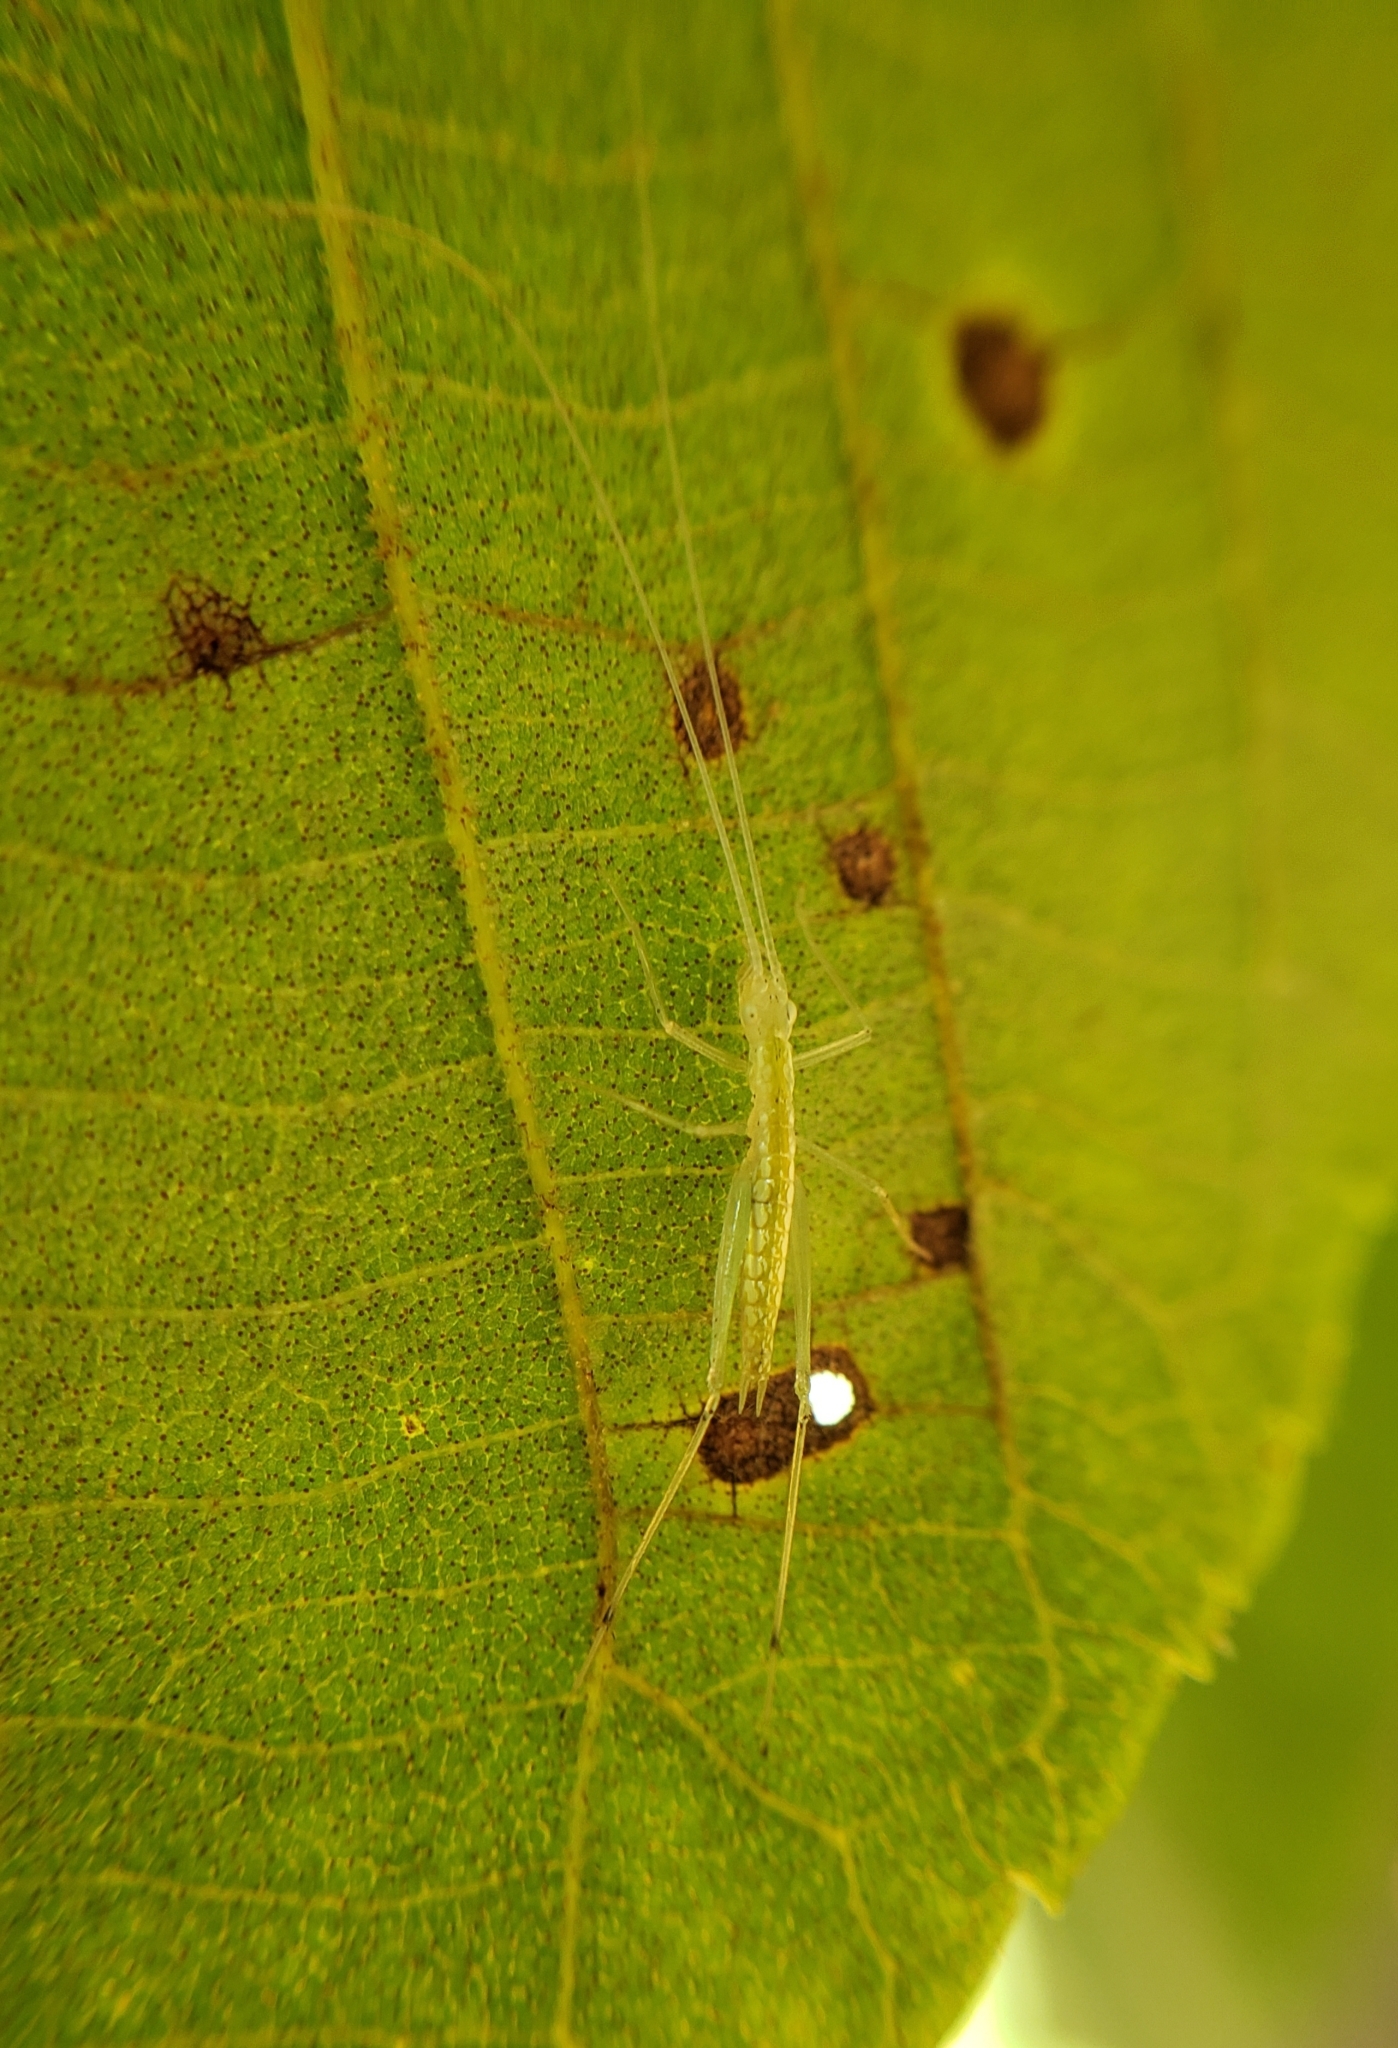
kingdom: Animalia
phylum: Arthropoda
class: Insecta
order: Orthoptera
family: Gryllidae
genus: Oecanthus
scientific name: Oecanthus
